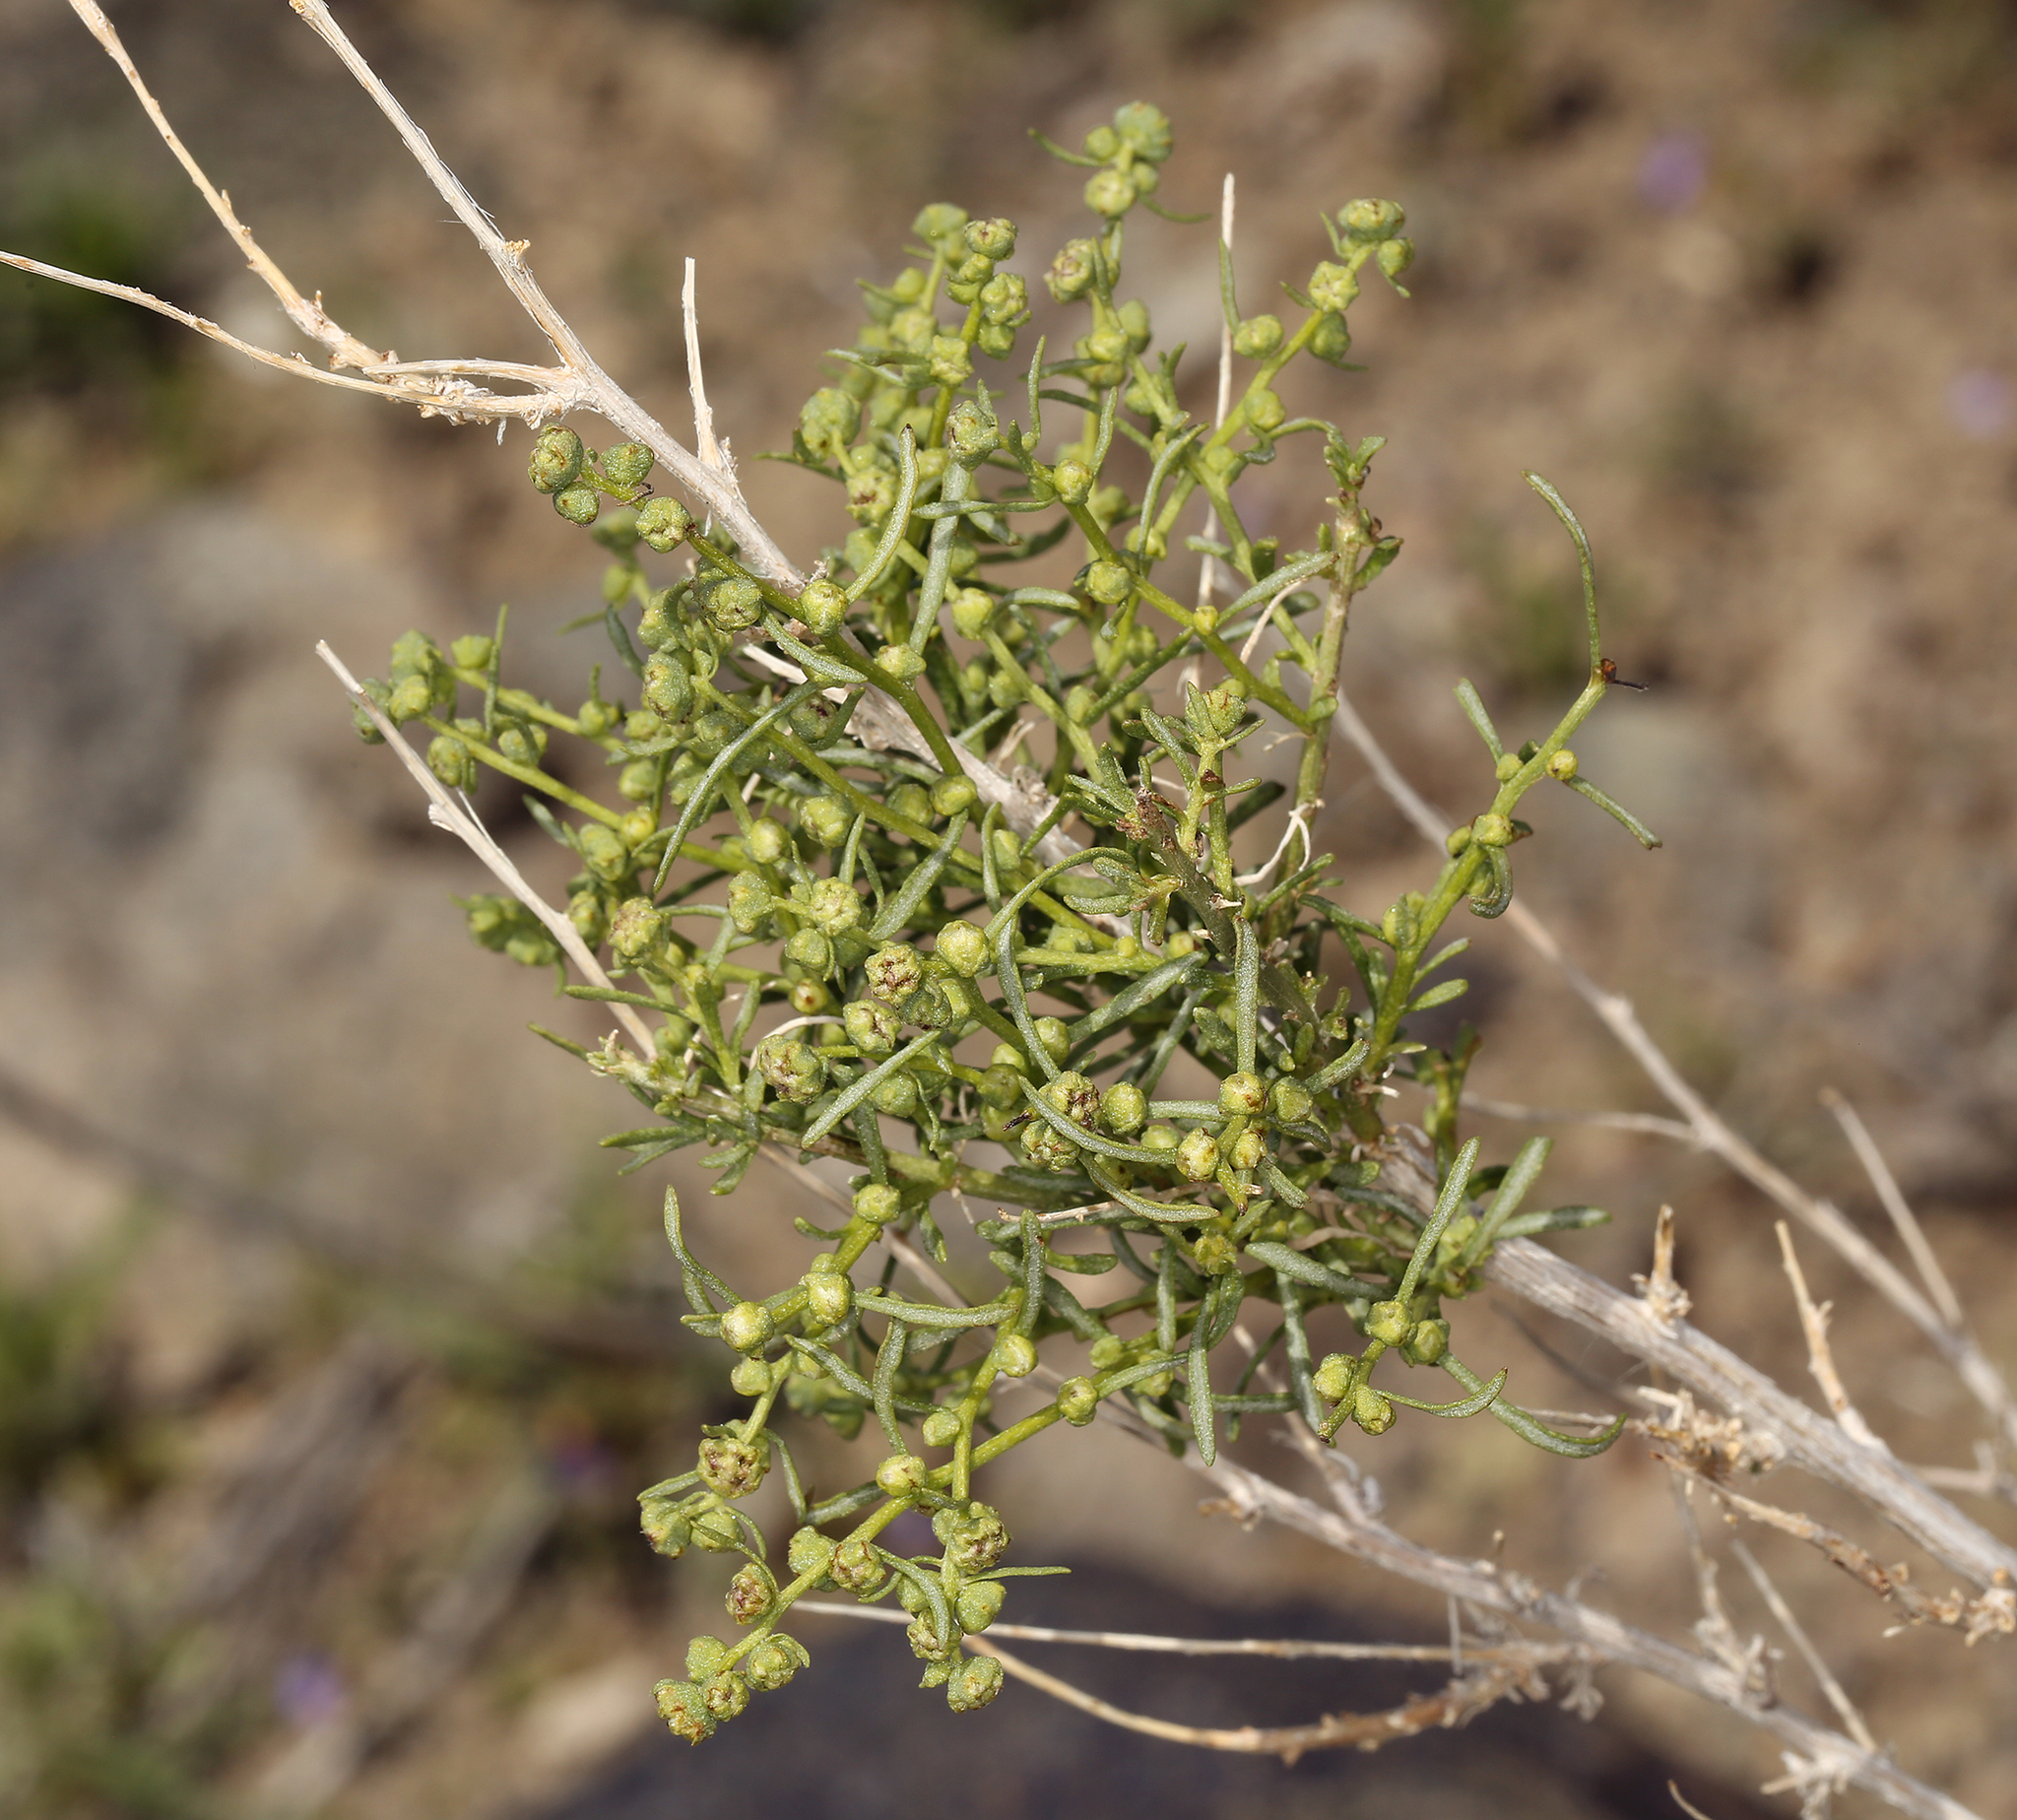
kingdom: Plantae
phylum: Tracheophyta
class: Magnoliopsida
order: Asterales
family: Asteraceae
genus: Ambrosia
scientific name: Ambrosia salsola
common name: Burrobrush
